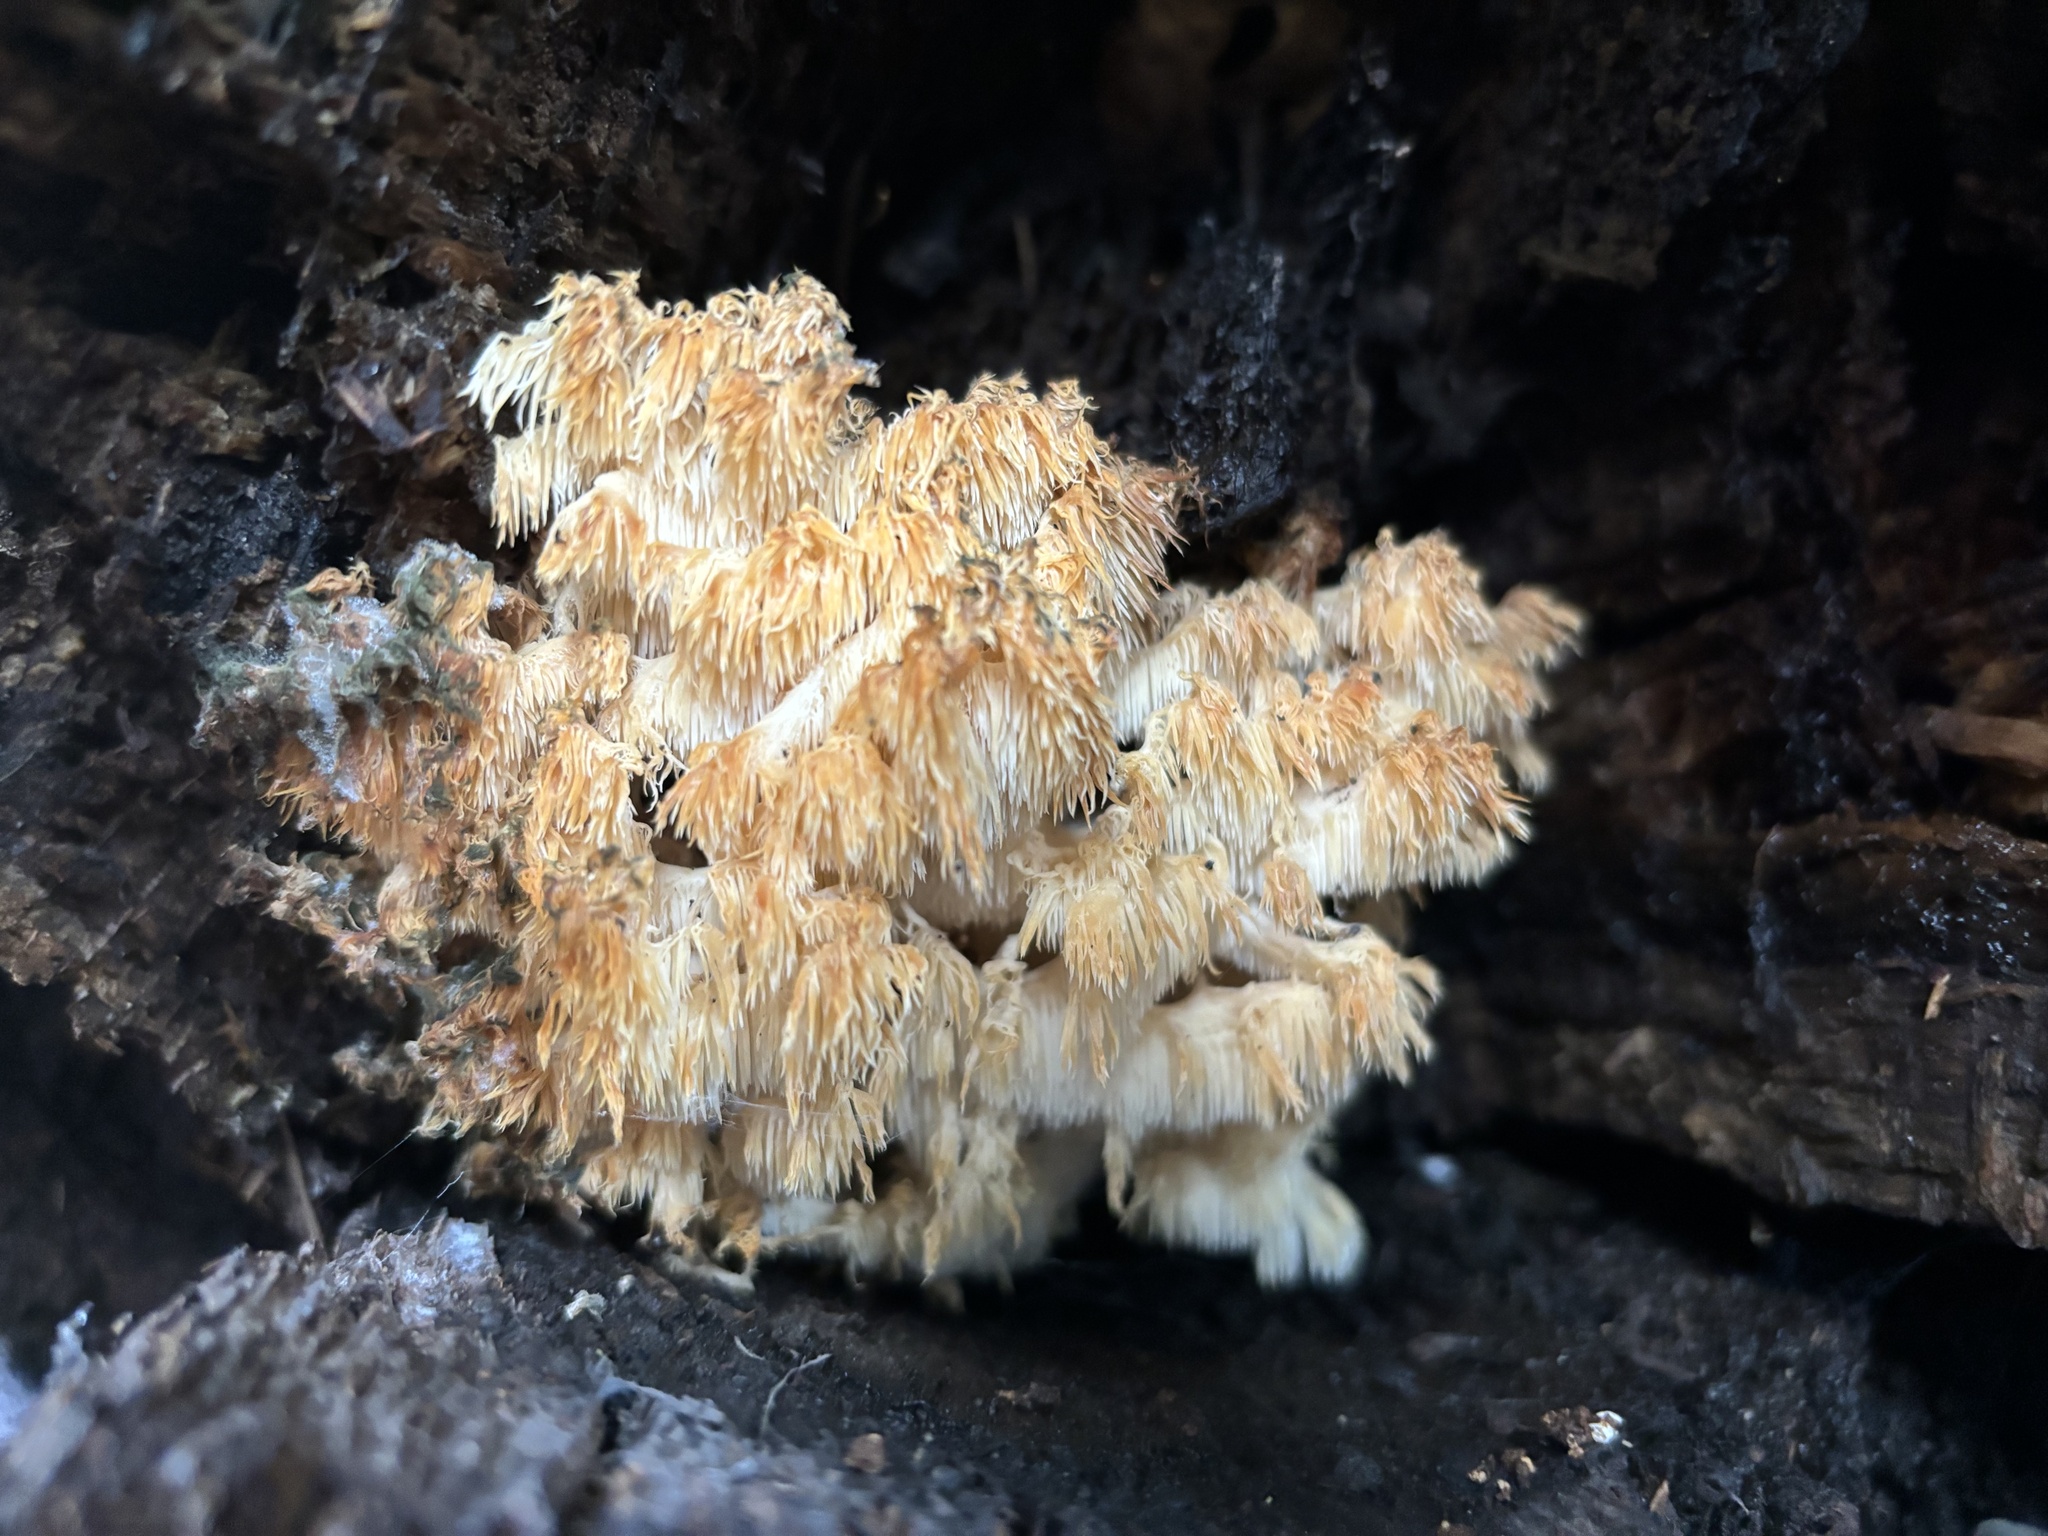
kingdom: Fungi
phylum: Basidiomycota
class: Agaricomycetes
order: Russulales
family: Hericiaceae
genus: Hericium
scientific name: Hericium coralloides
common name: Coral tooth
